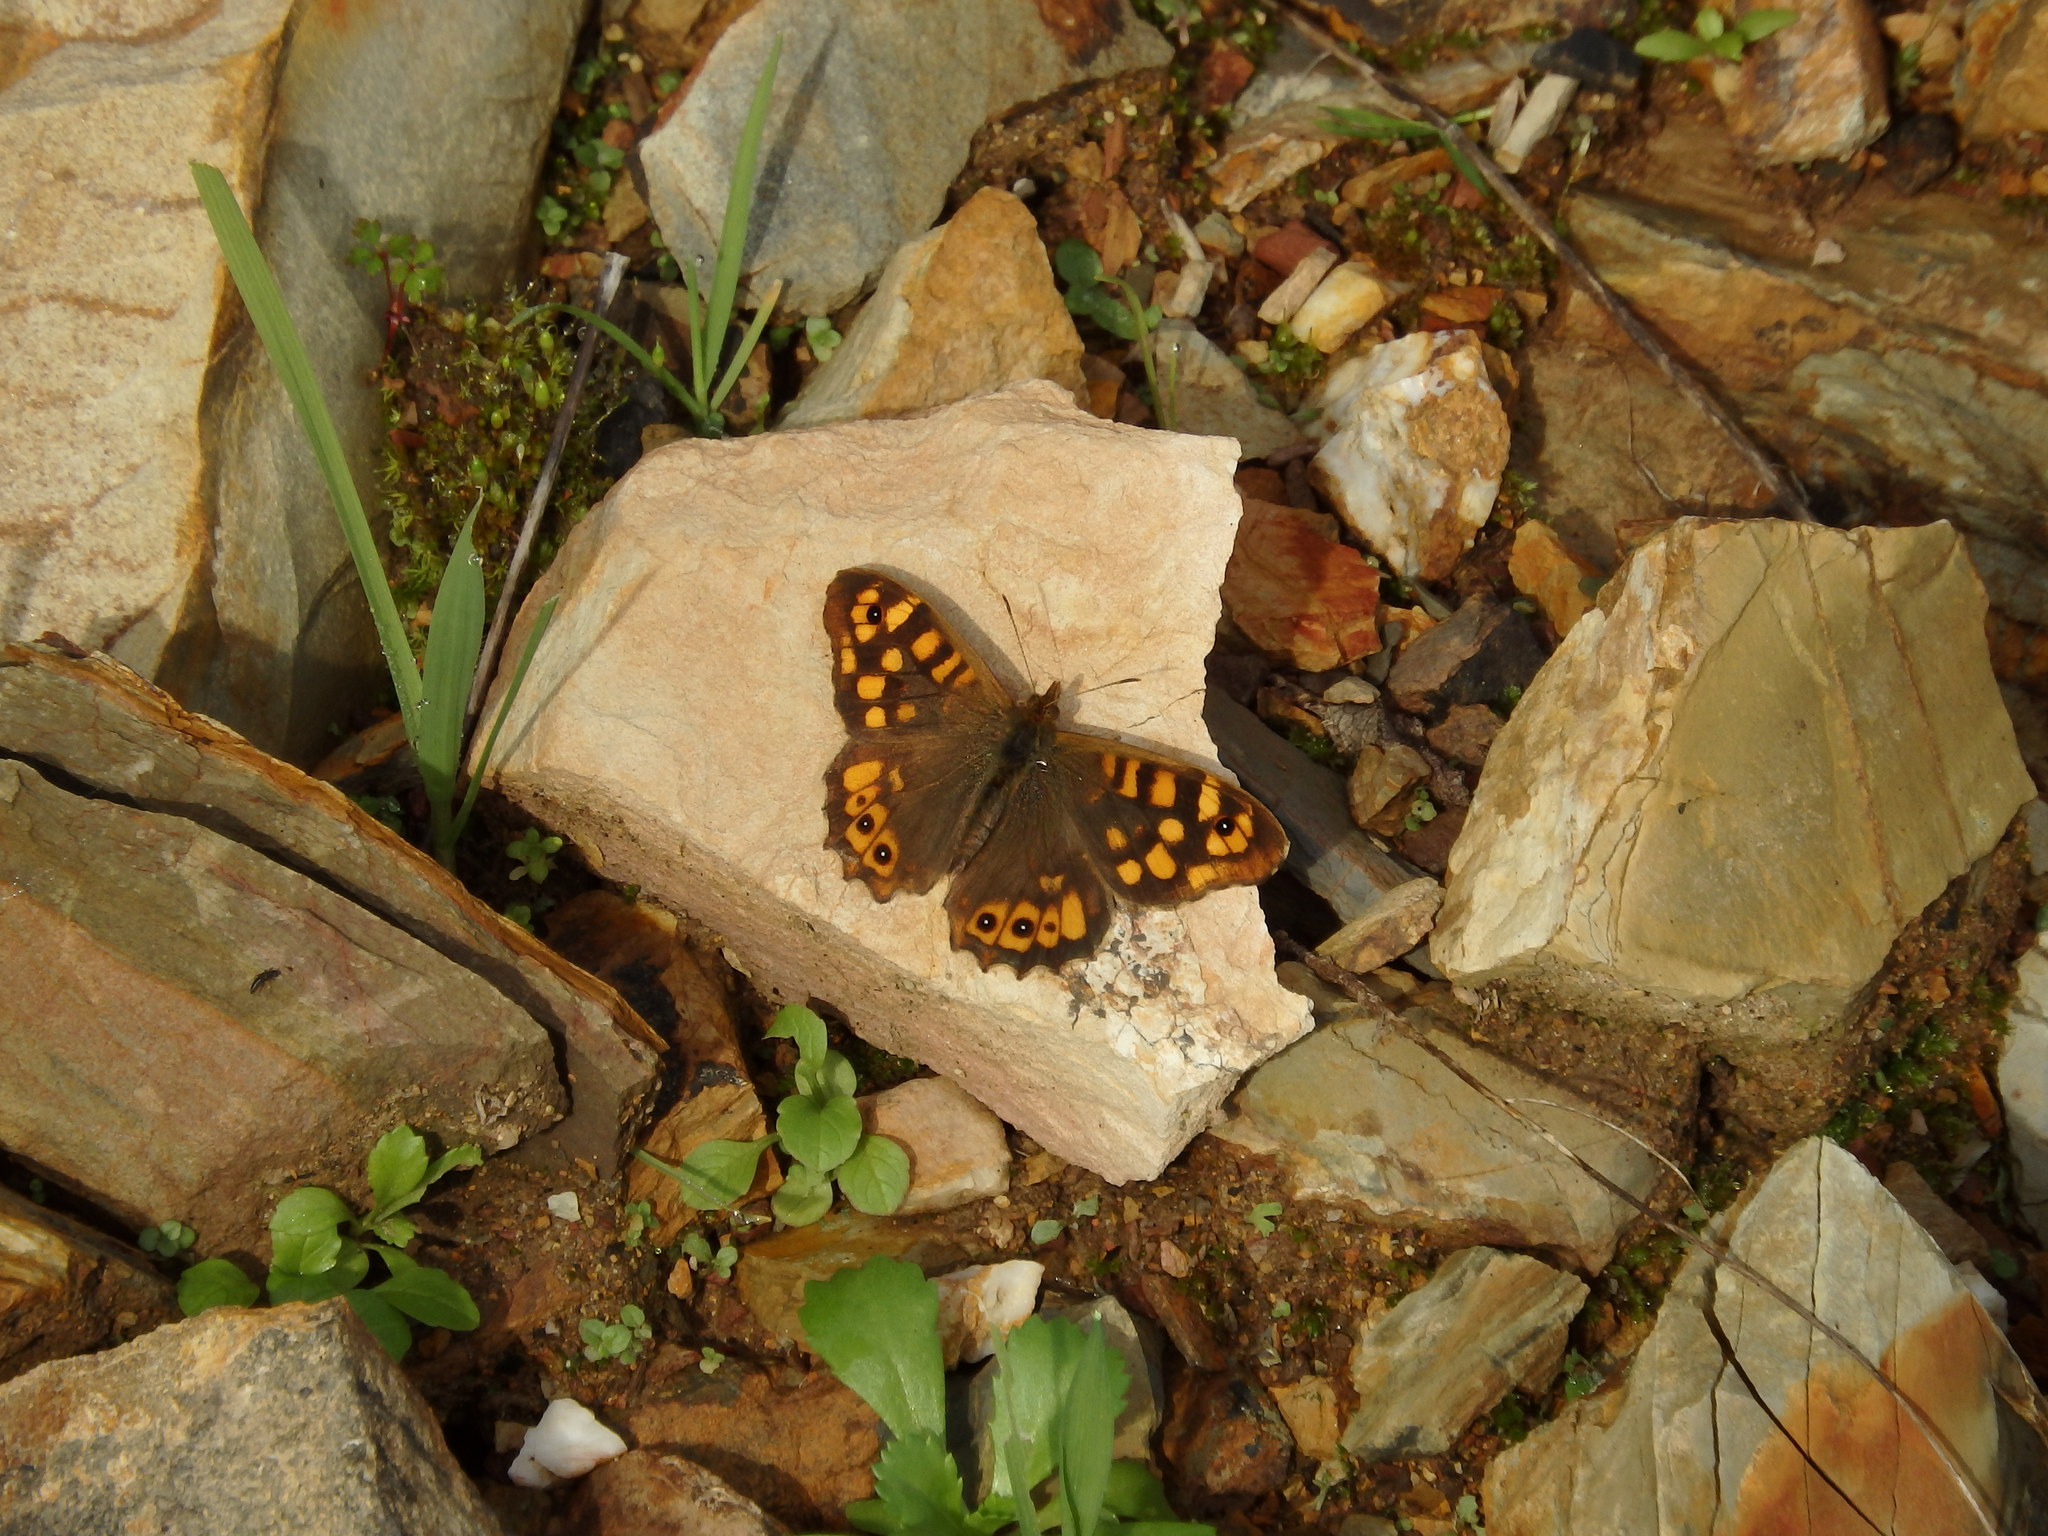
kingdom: Animalia
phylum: Arthropoda
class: Insecta
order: Lepidoptera
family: Nymphalidae
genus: Pararge
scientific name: Pararge aegeria
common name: Speckled wood
